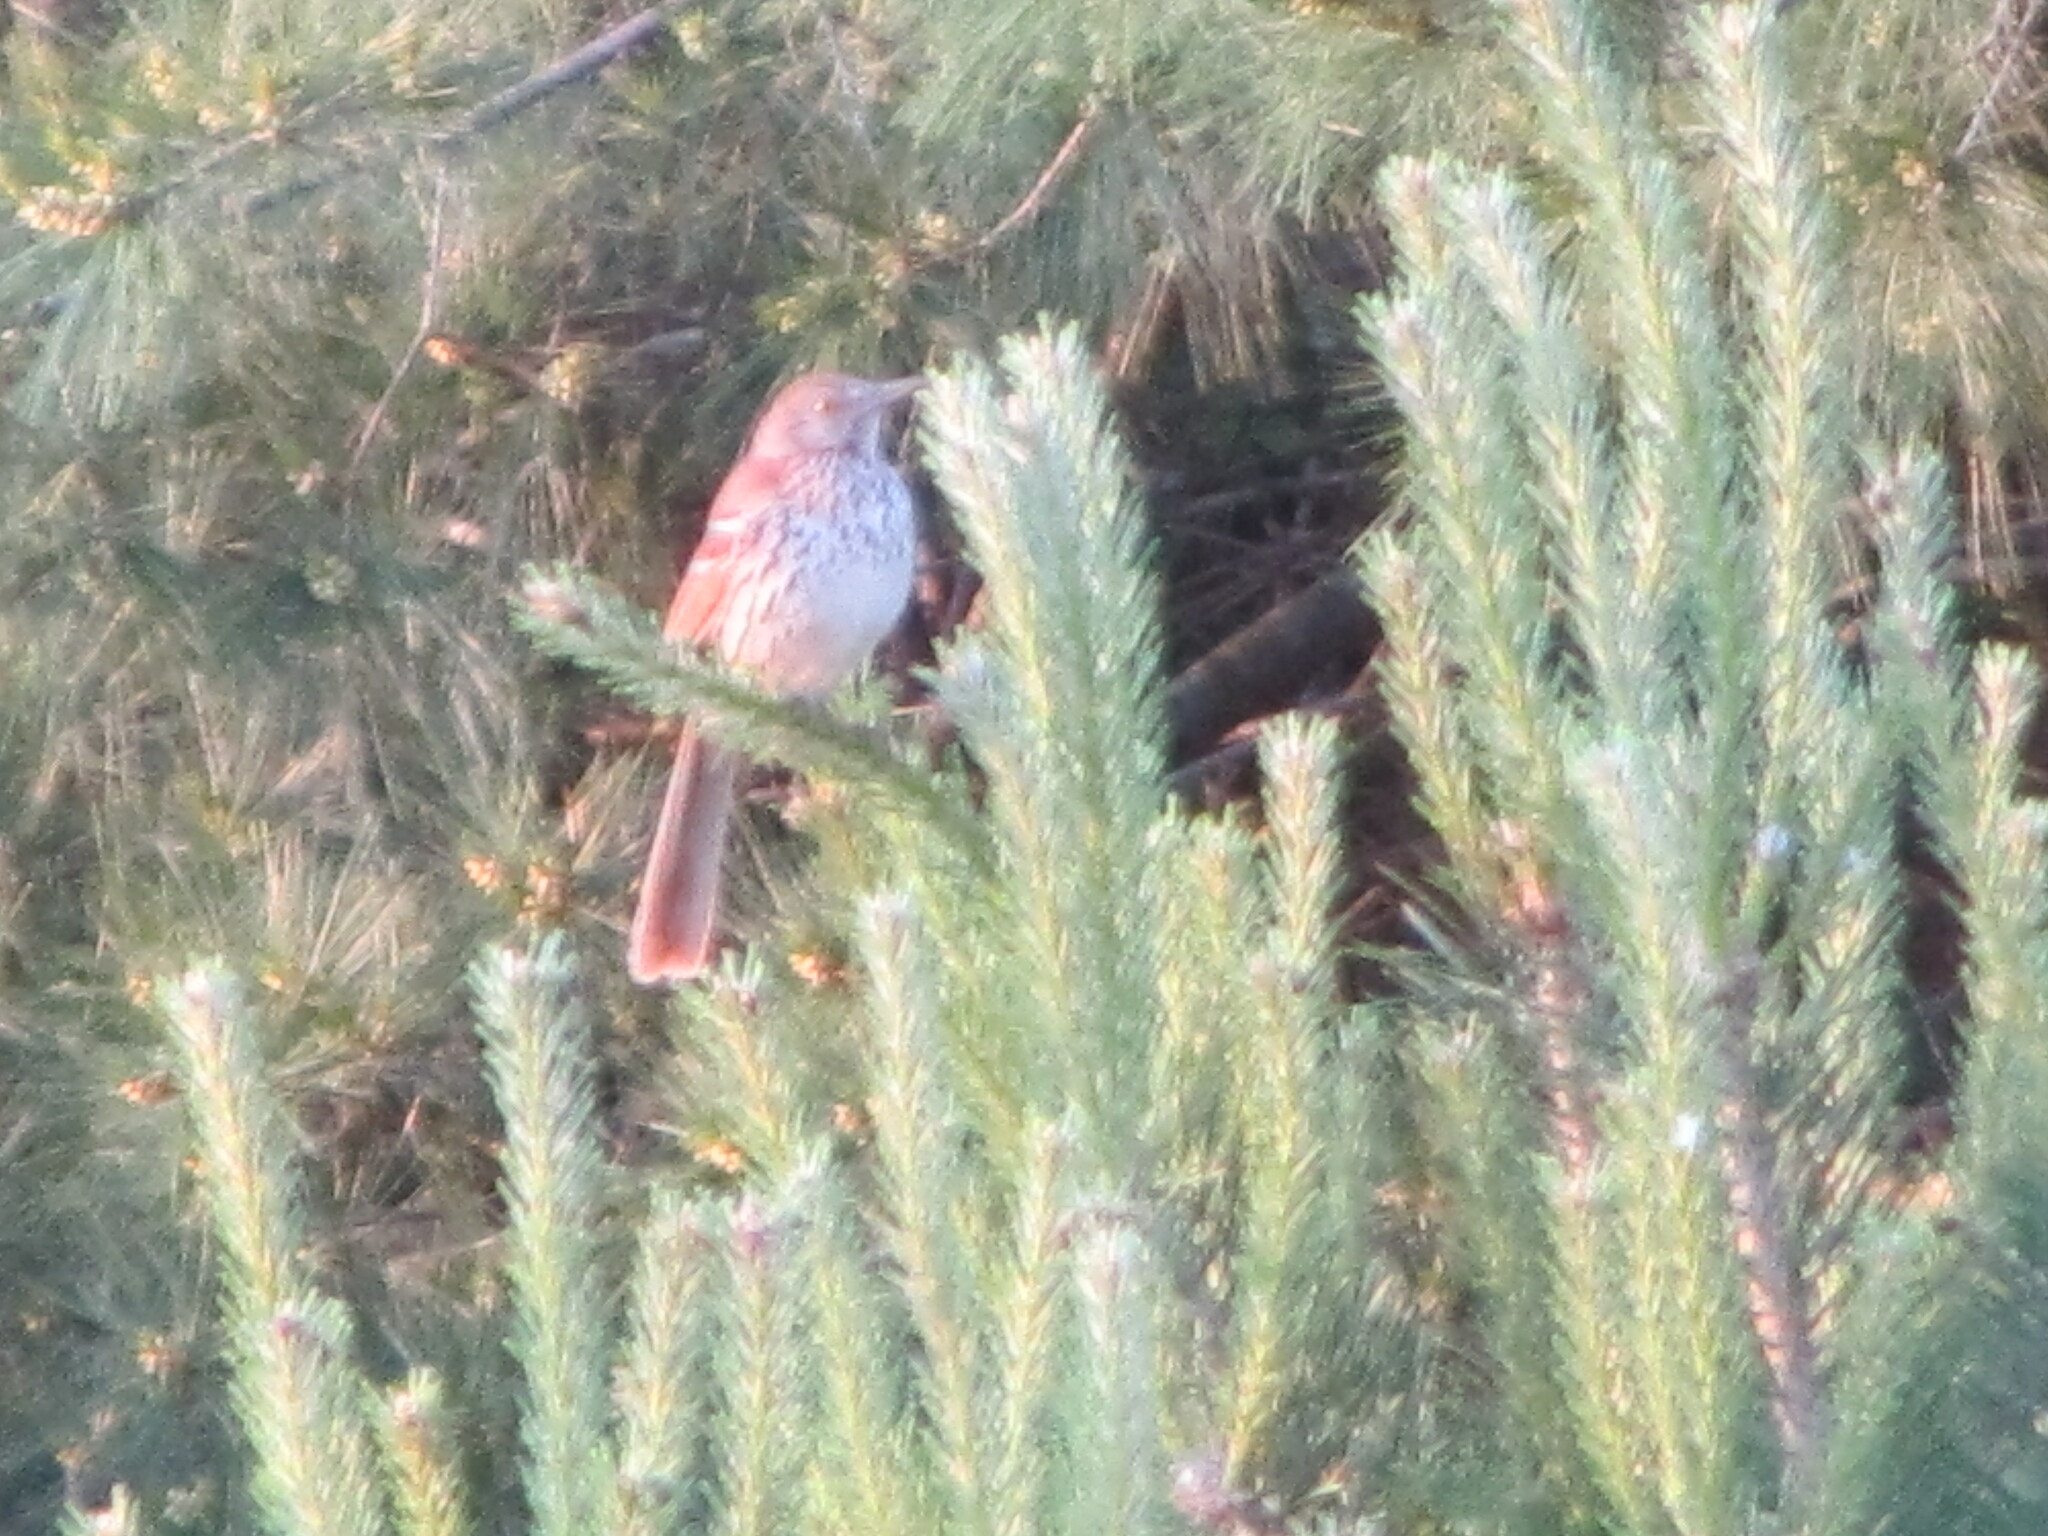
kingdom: Animalia
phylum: Chordata
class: Aves
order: Passeriformes
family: Mimidae
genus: Toxostoma
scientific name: Toxostoma rufum
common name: Brown thrasher
